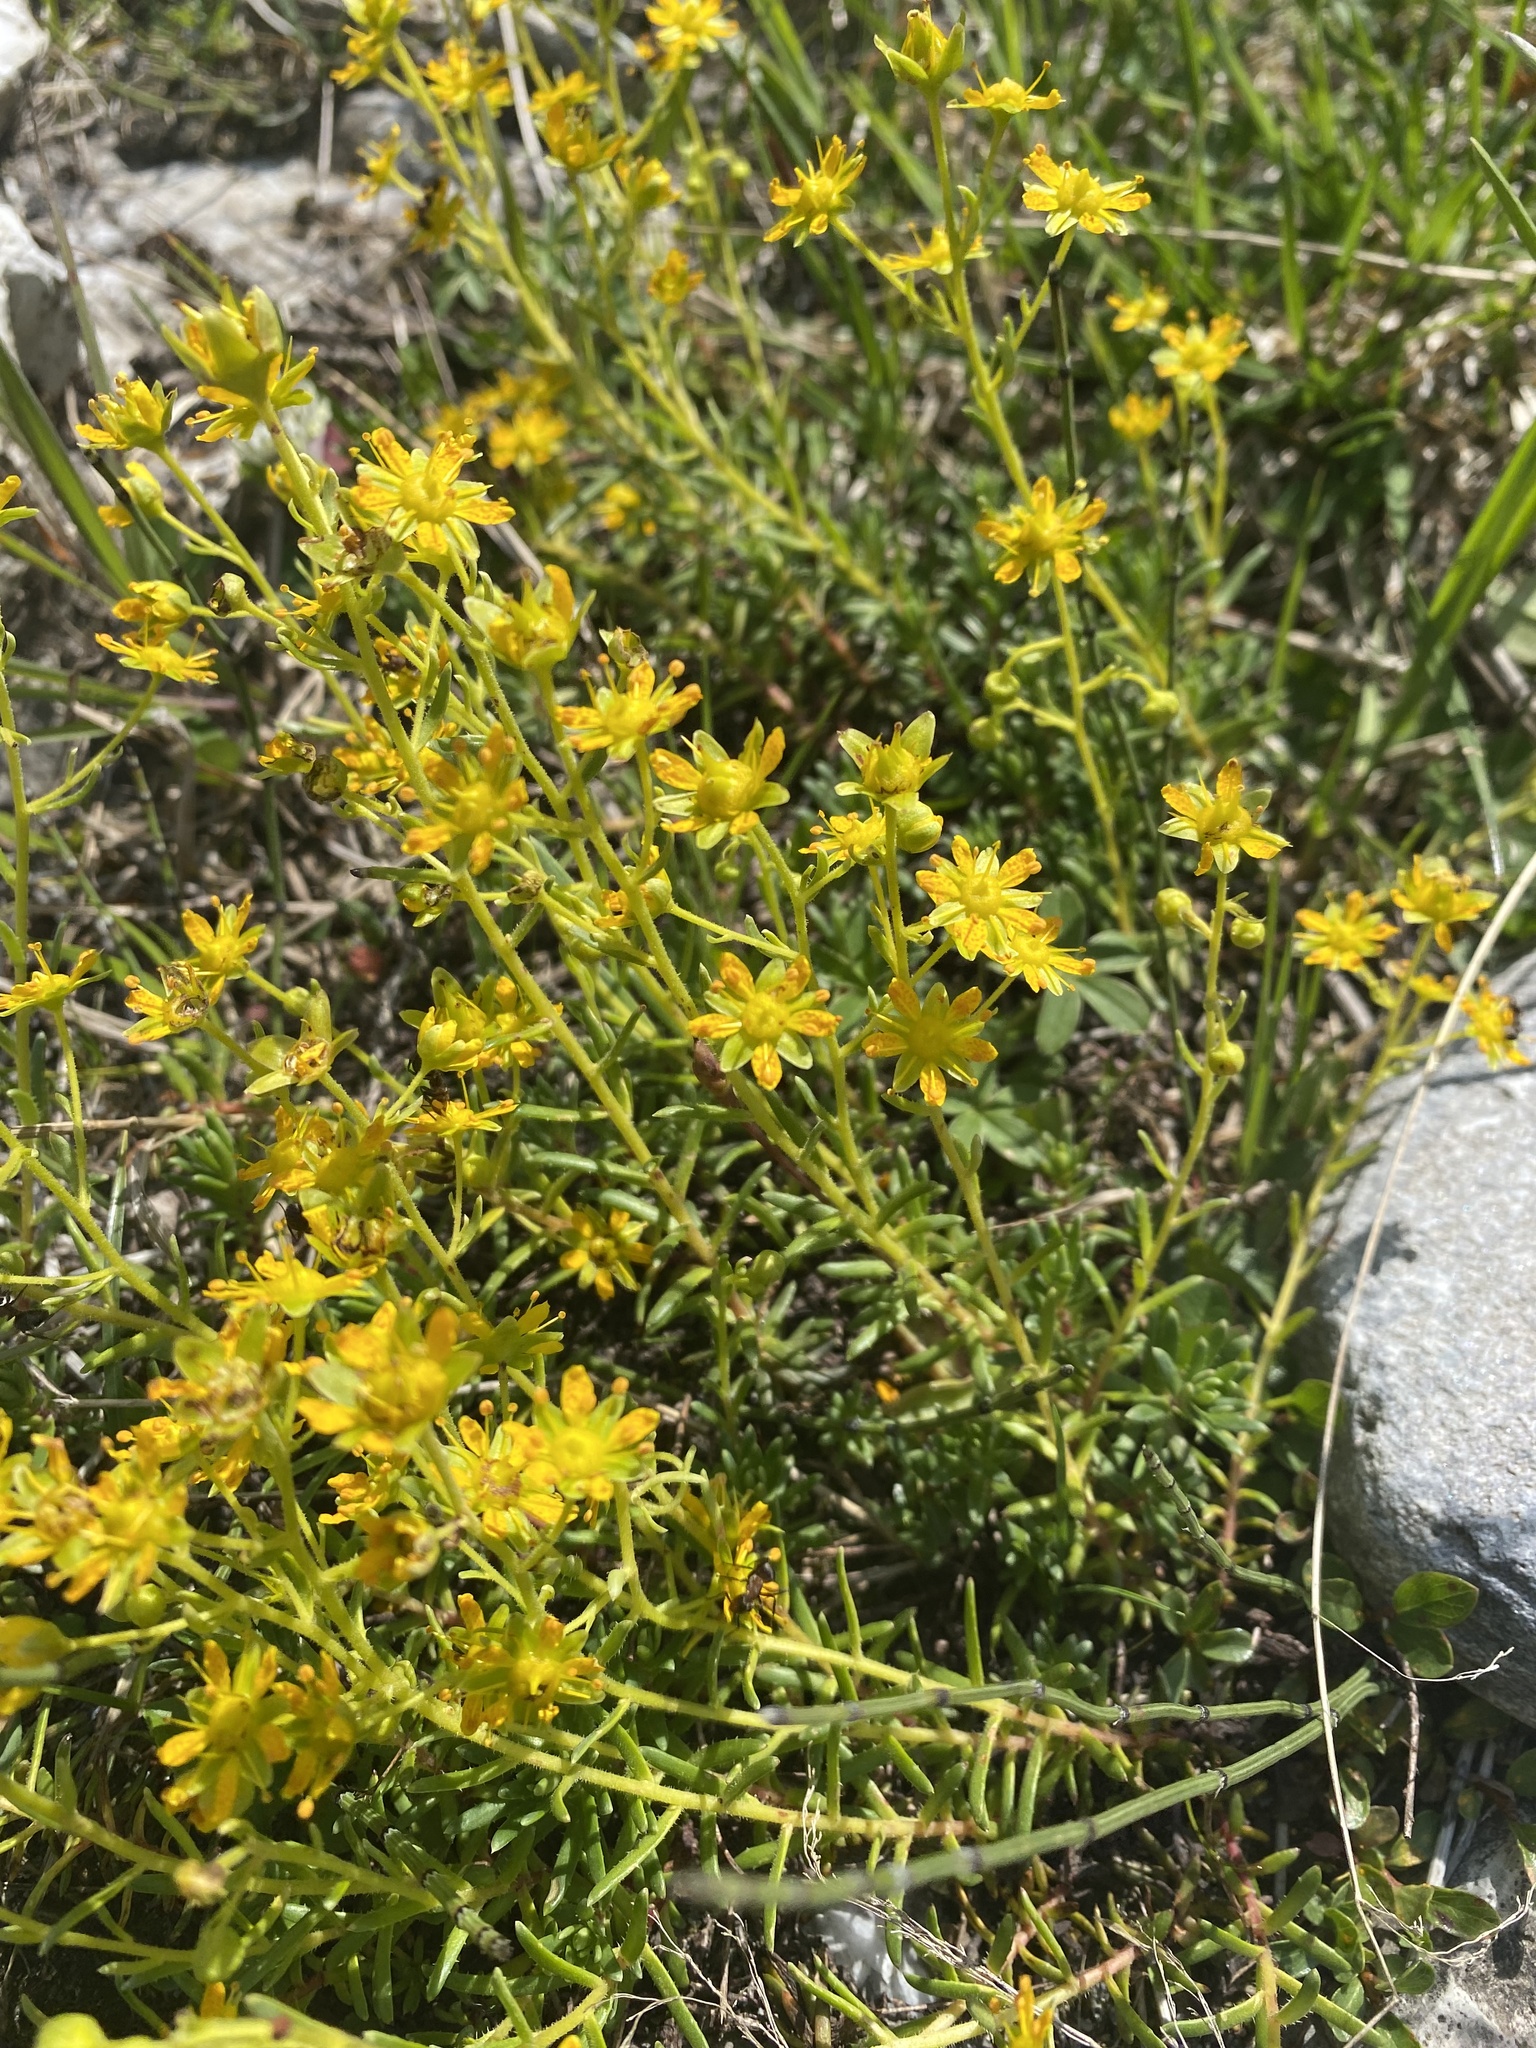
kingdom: Plantae
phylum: Tracheophyta
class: Magnoliopsida
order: Saxifragales
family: Saxifragaceae
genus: Saxifraga
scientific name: Saxifraga aizoides
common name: Yellow mountain saxifrage
